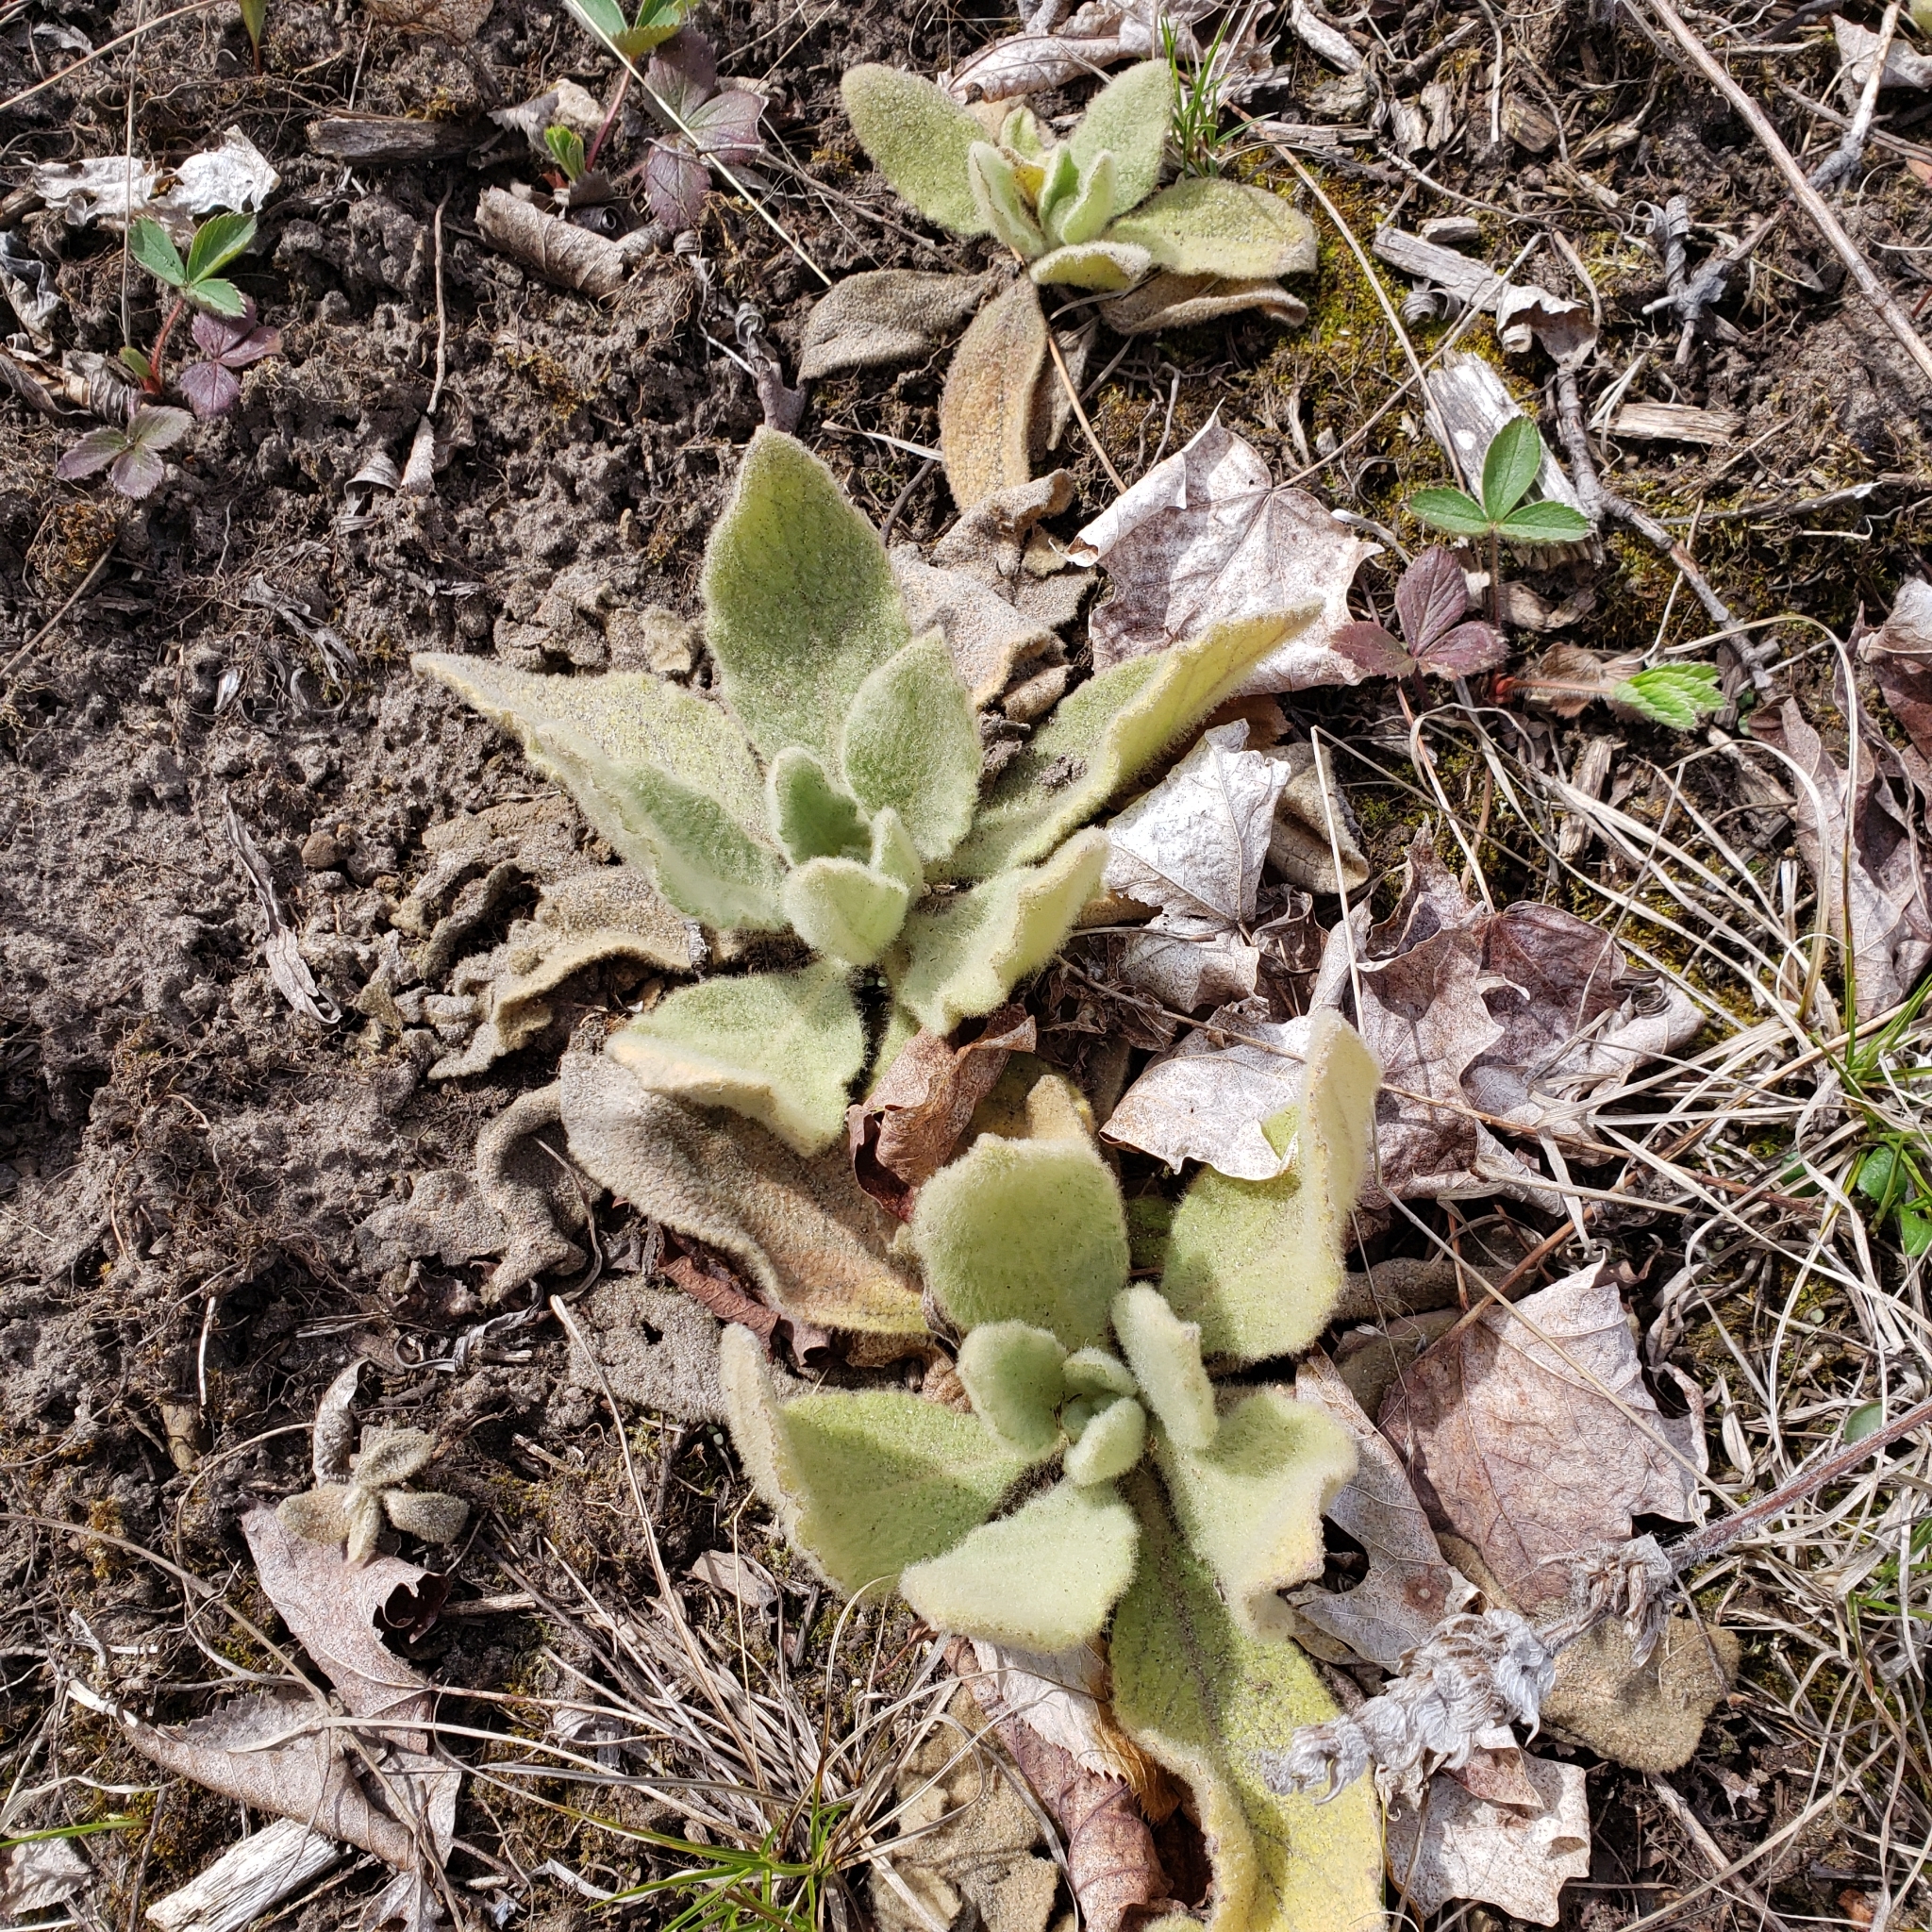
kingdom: Plantae
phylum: Tracheophyta
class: Magnoliopsida
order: Lamiales
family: Scrophulariaceae
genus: Verbascum
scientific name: Verbascum thapsus
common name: Common mullein
